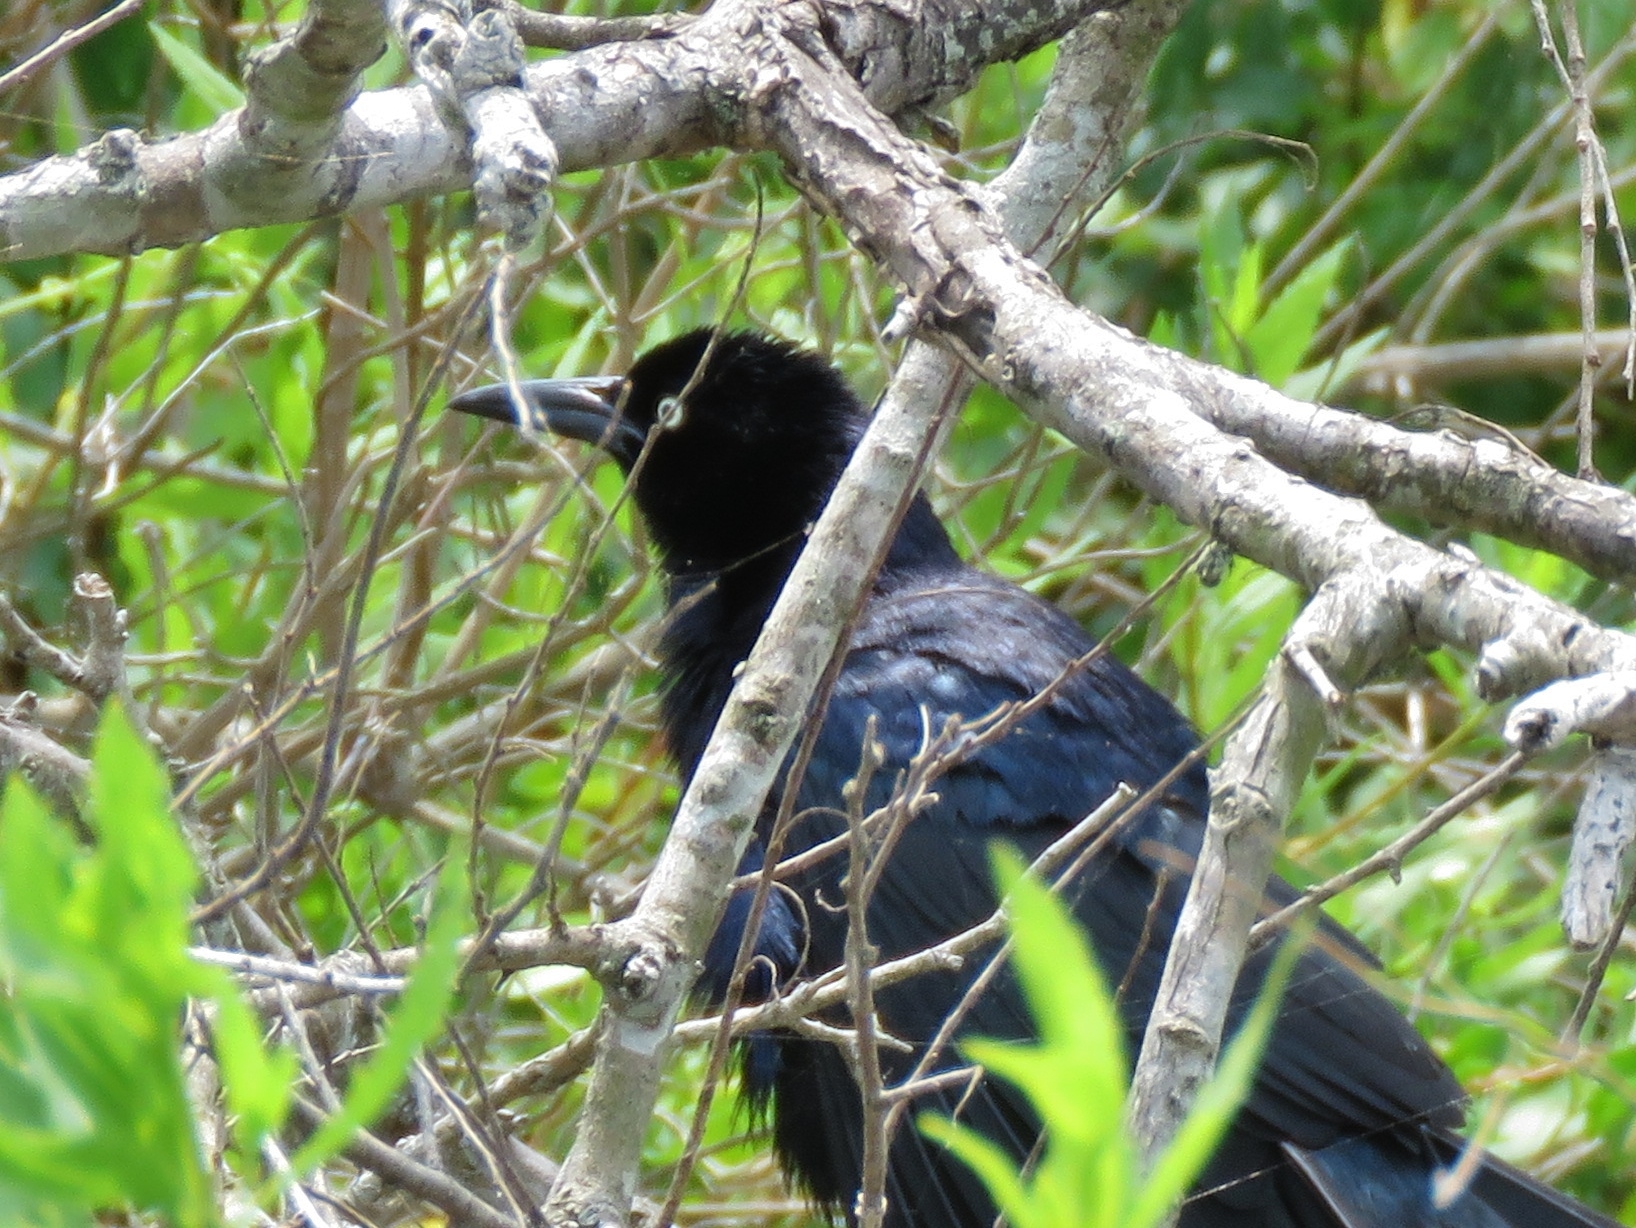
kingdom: Animalia
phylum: Chordata
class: Aves
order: Passeriformes
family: Icteridae
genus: Quiscalus
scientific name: Quiscalus major
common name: Boat-tailed grackle
